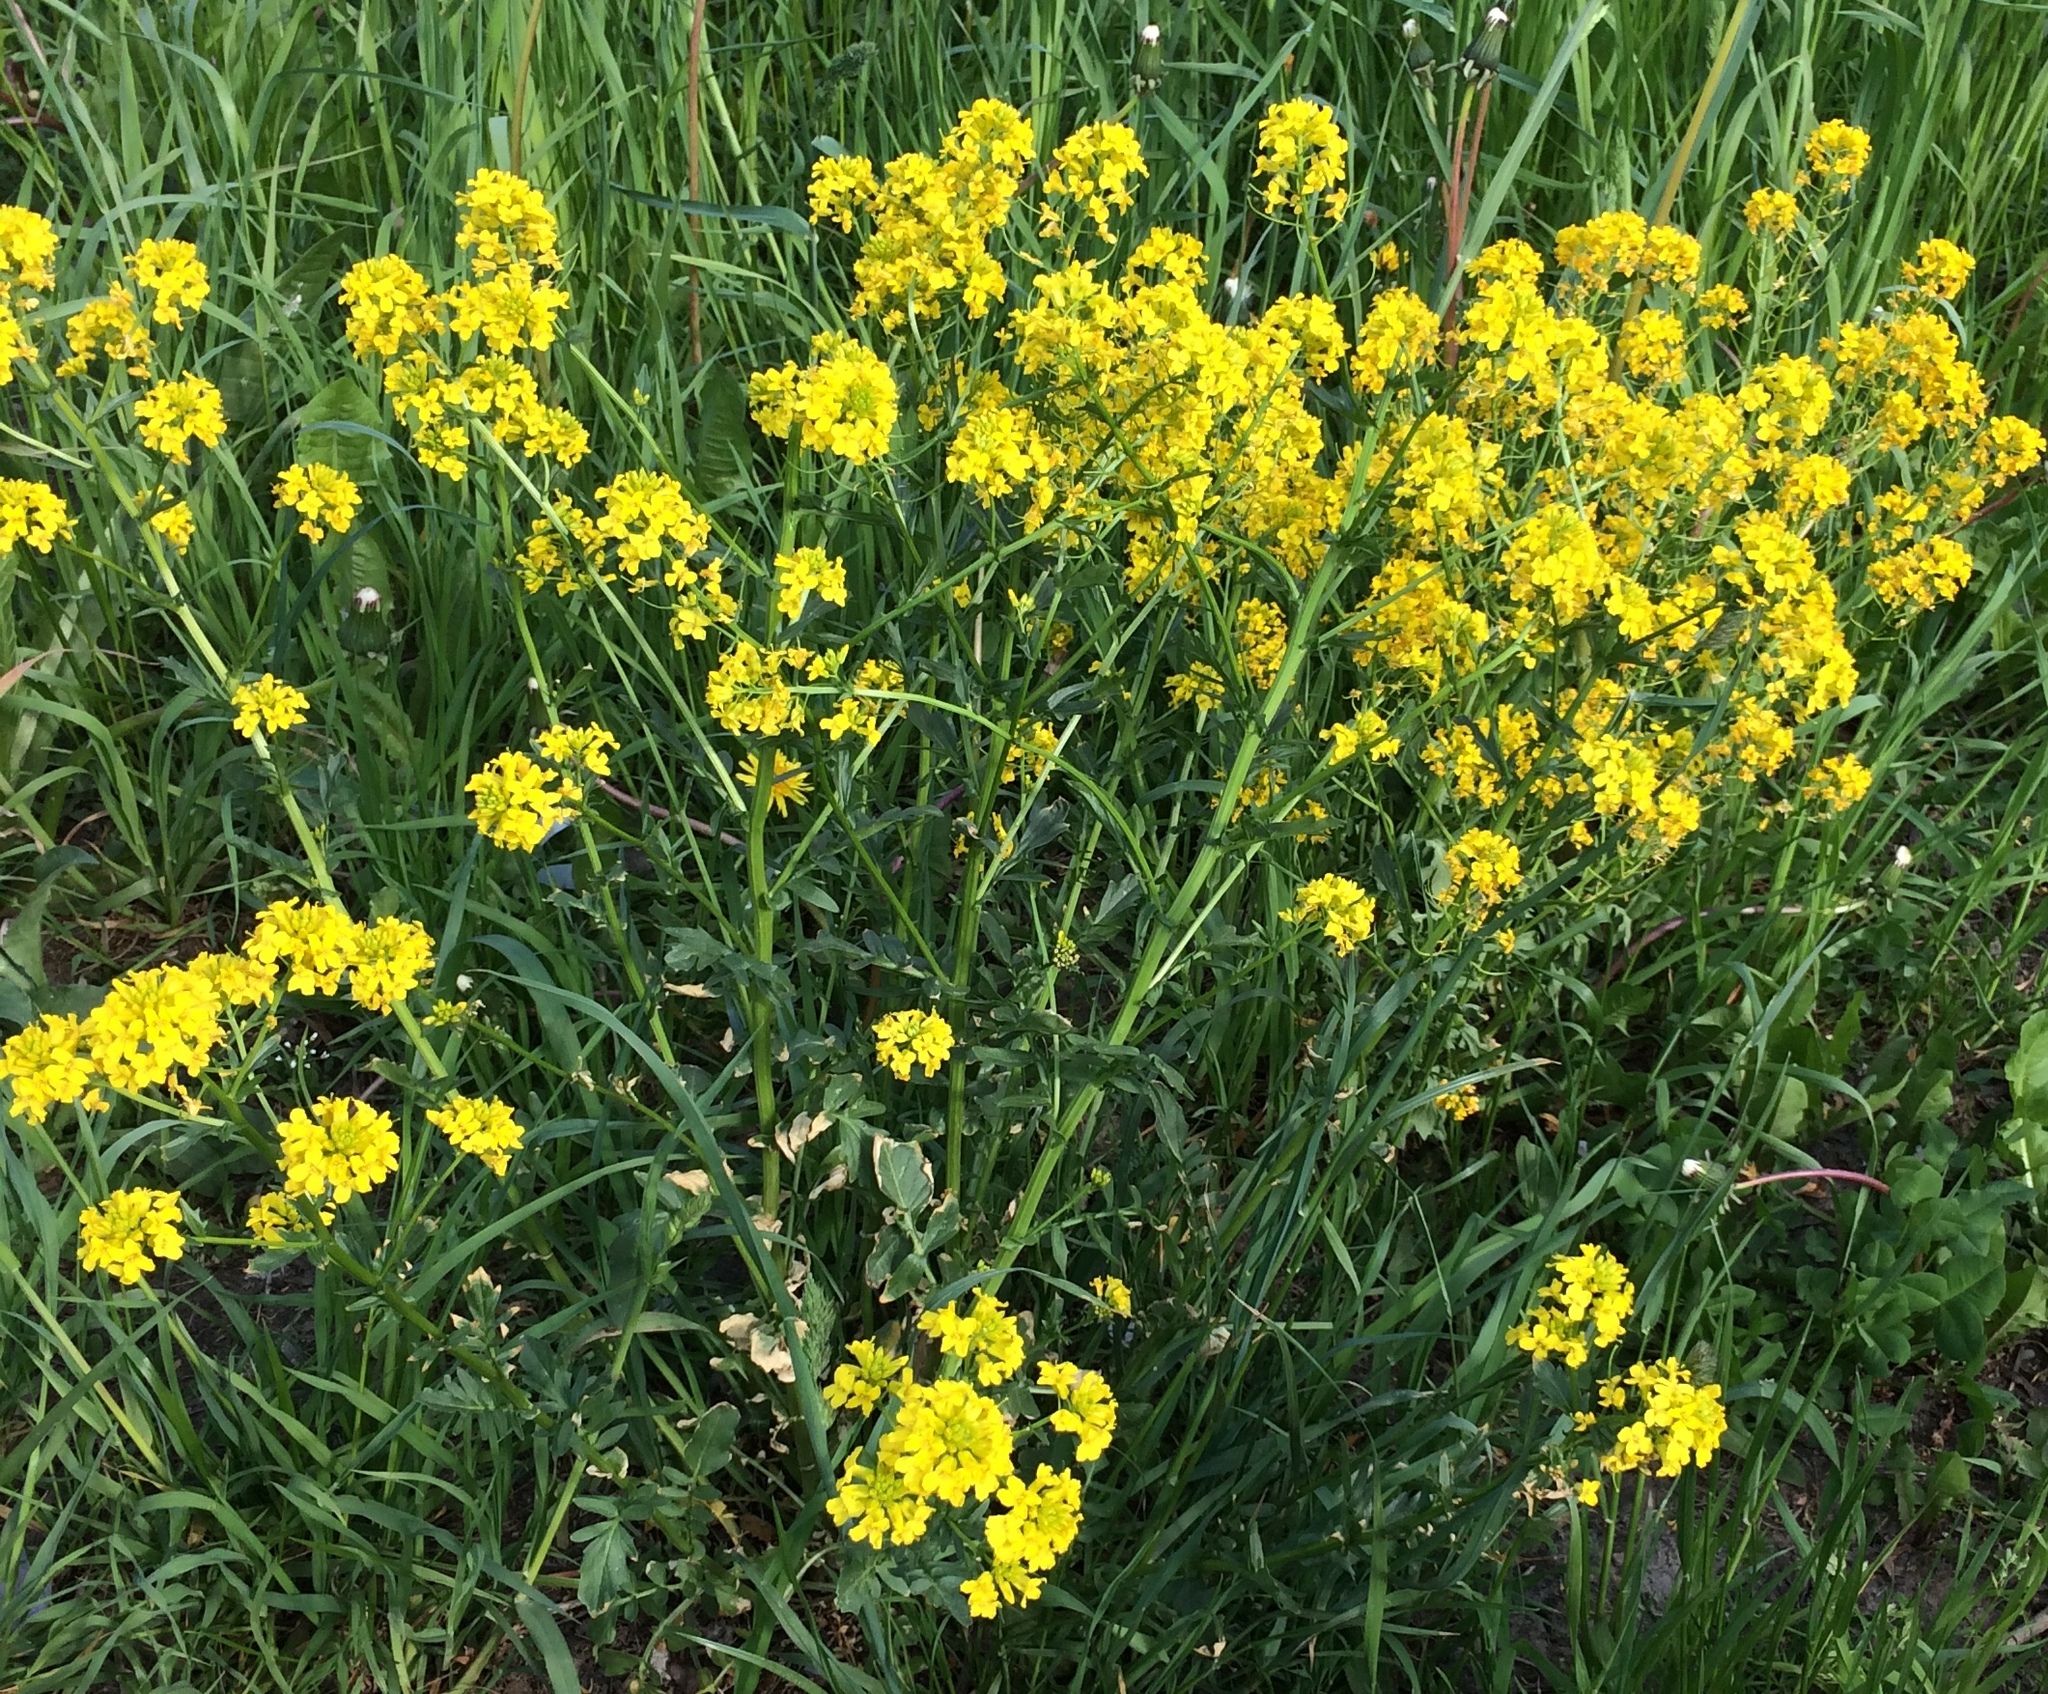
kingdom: Plantae
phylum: Tracheophyta
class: Magnoliopsida
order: Brassicales
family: Brassicaceae
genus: Barbarea
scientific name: Barbarea vulgaris
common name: Cressy-greens
